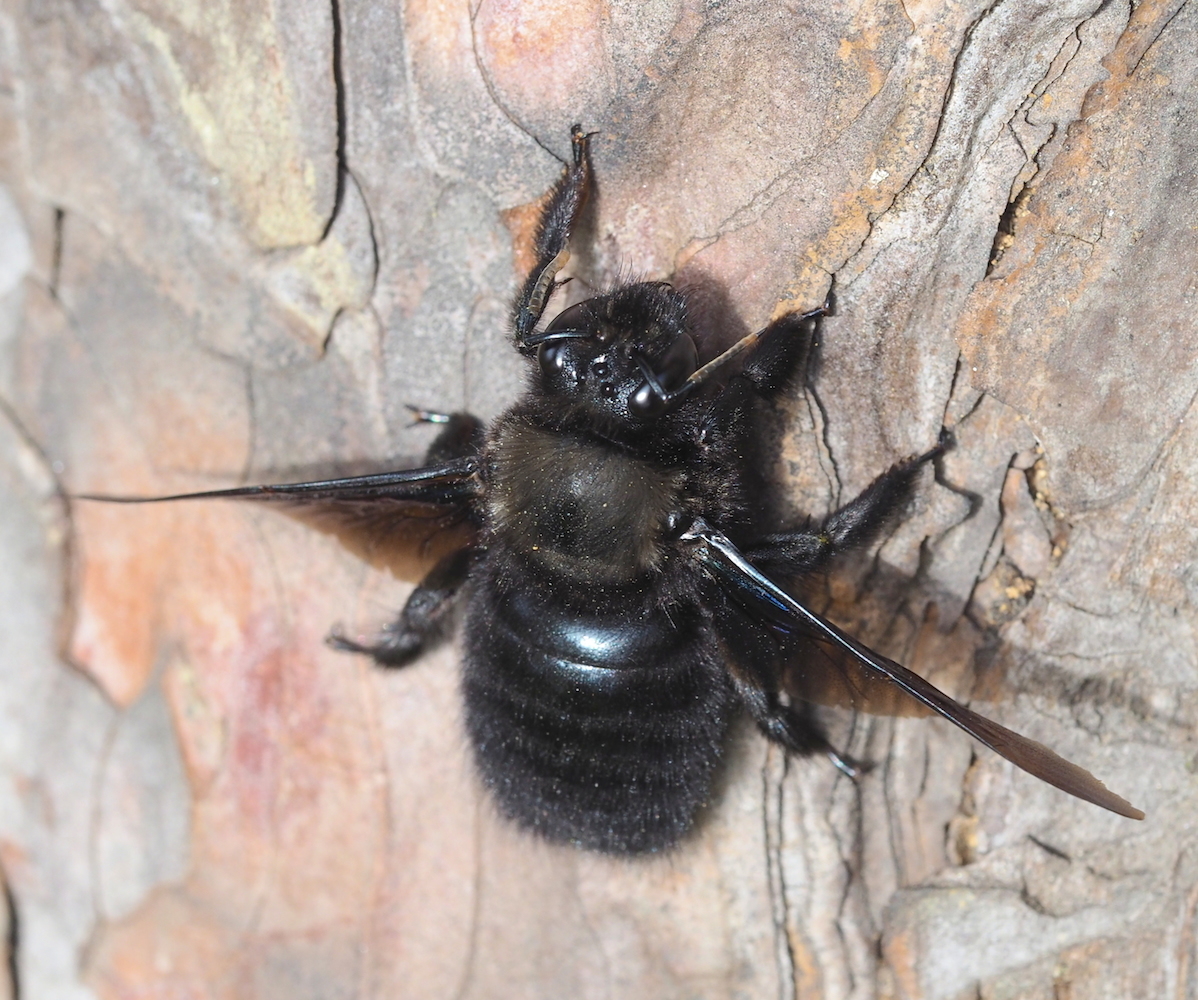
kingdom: Animalia
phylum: Arthropoda
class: Insecta
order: Hymenoptera
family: Apidae
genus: Xylocopa
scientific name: Xylocopa violacea
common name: Violet carpenter bee
